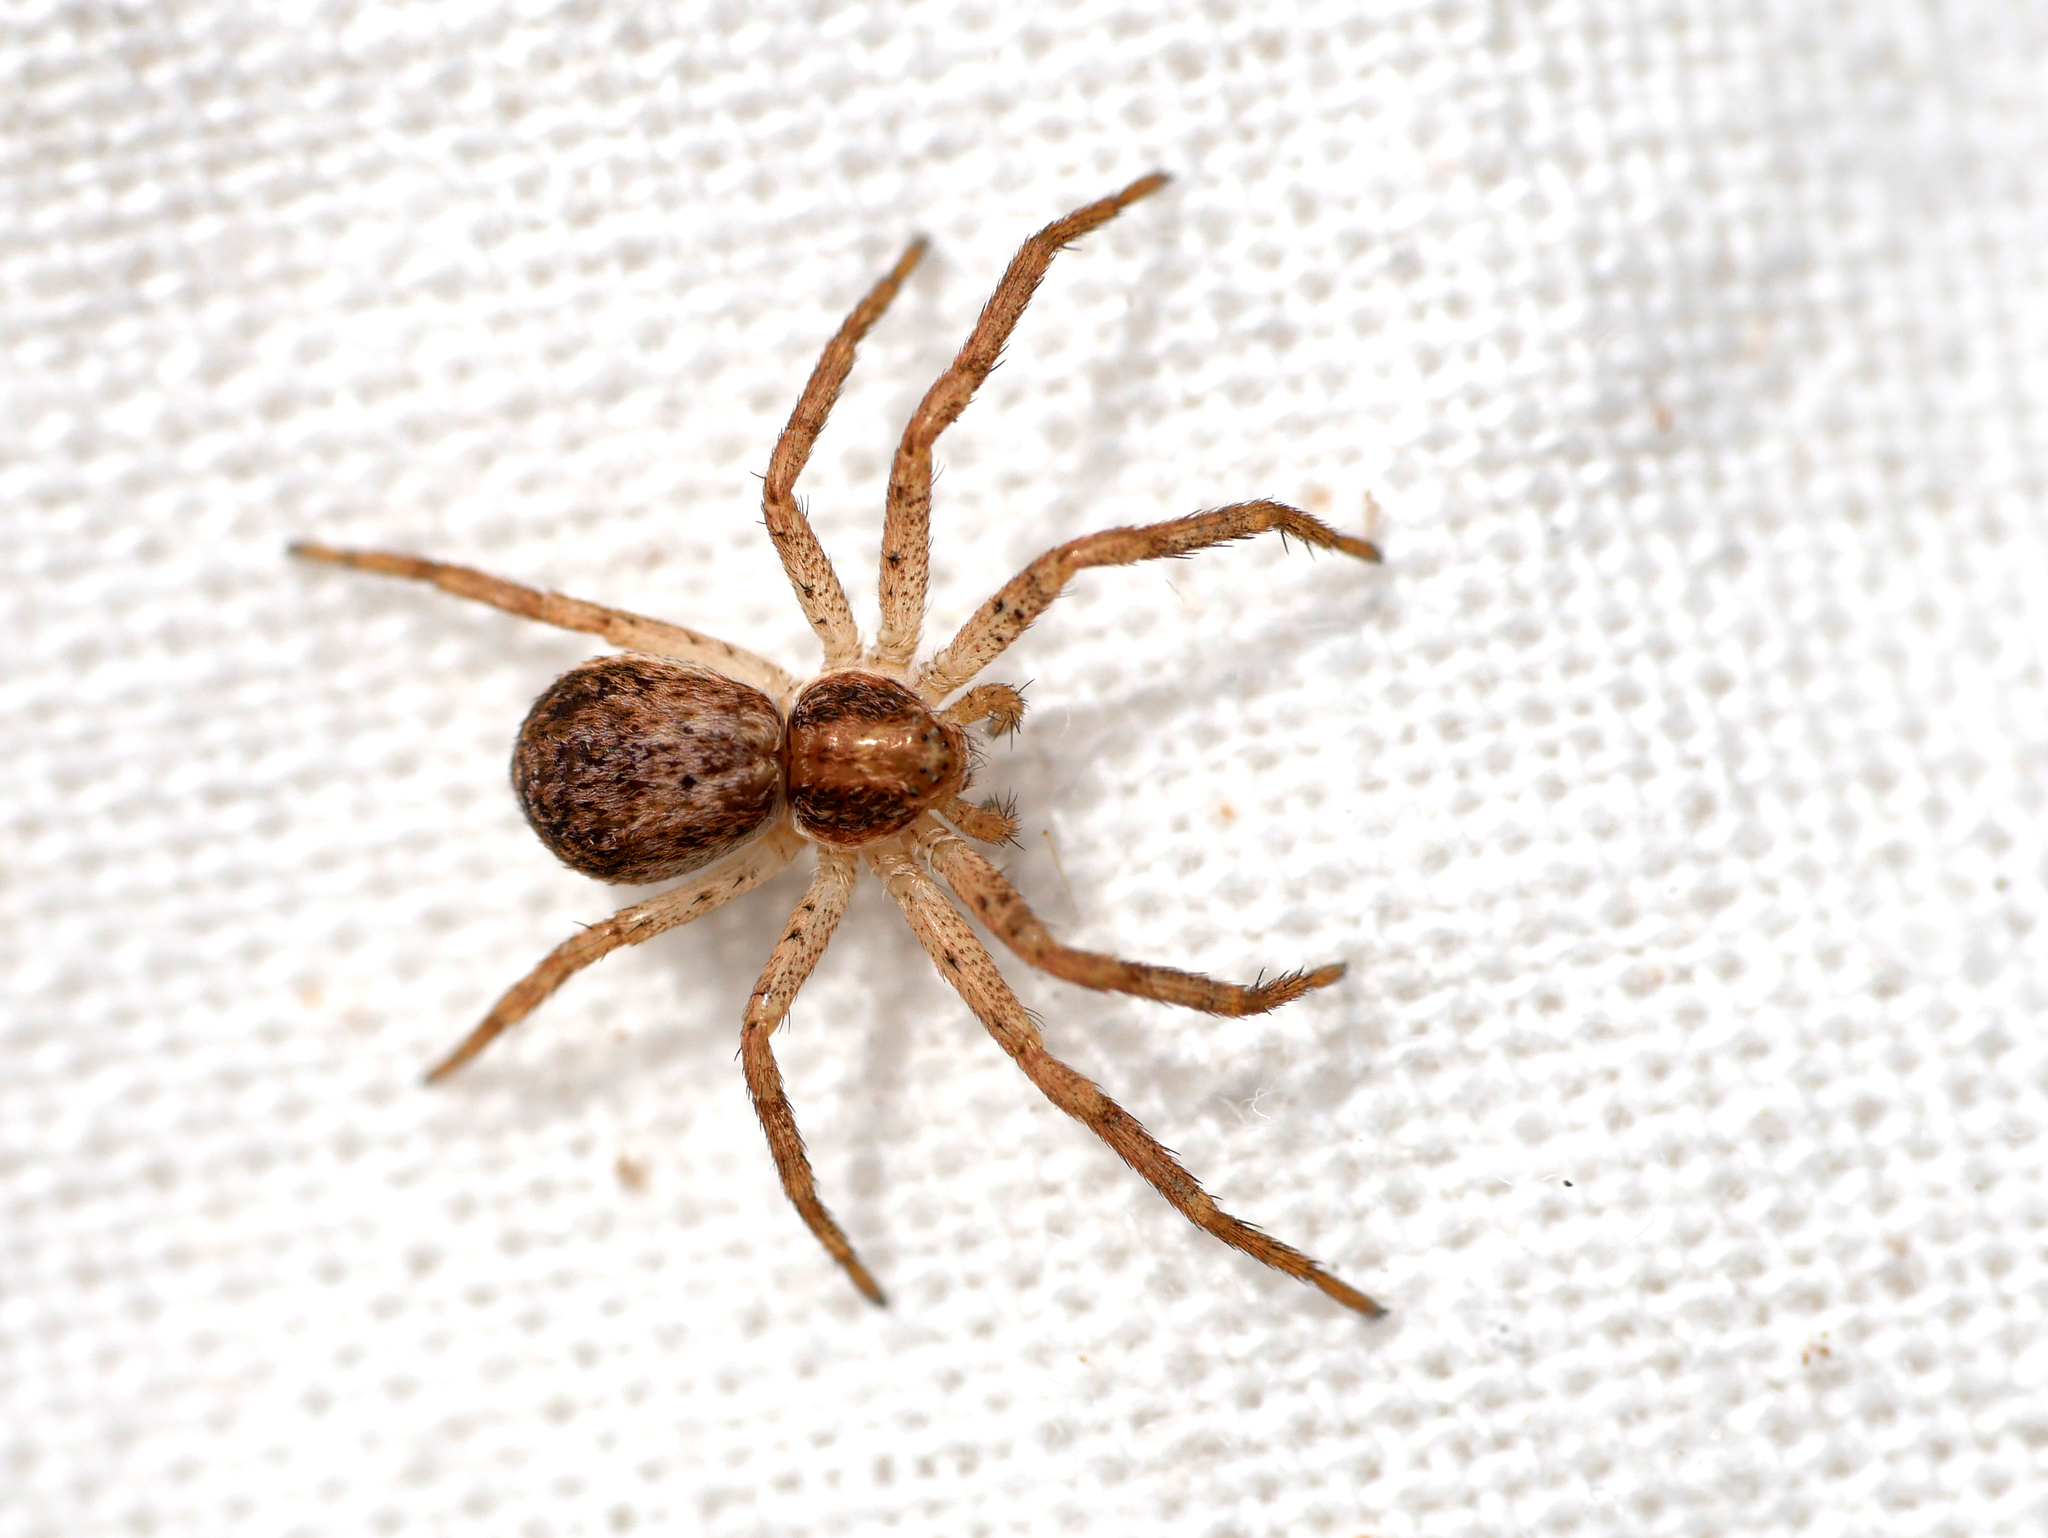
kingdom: Animalia
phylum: Arthropoda
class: Arachnida
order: Araneae
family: Philodromidae
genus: Philodromus
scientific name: Philodromus dispar
